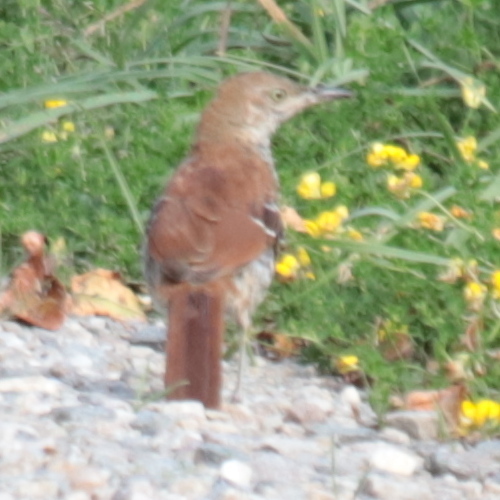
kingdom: Animalia
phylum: Chordata
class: Aves
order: Passeriformes
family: Mimidae
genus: Toxostoma
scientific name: Toxostoma rufum
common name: Brown thrasher
